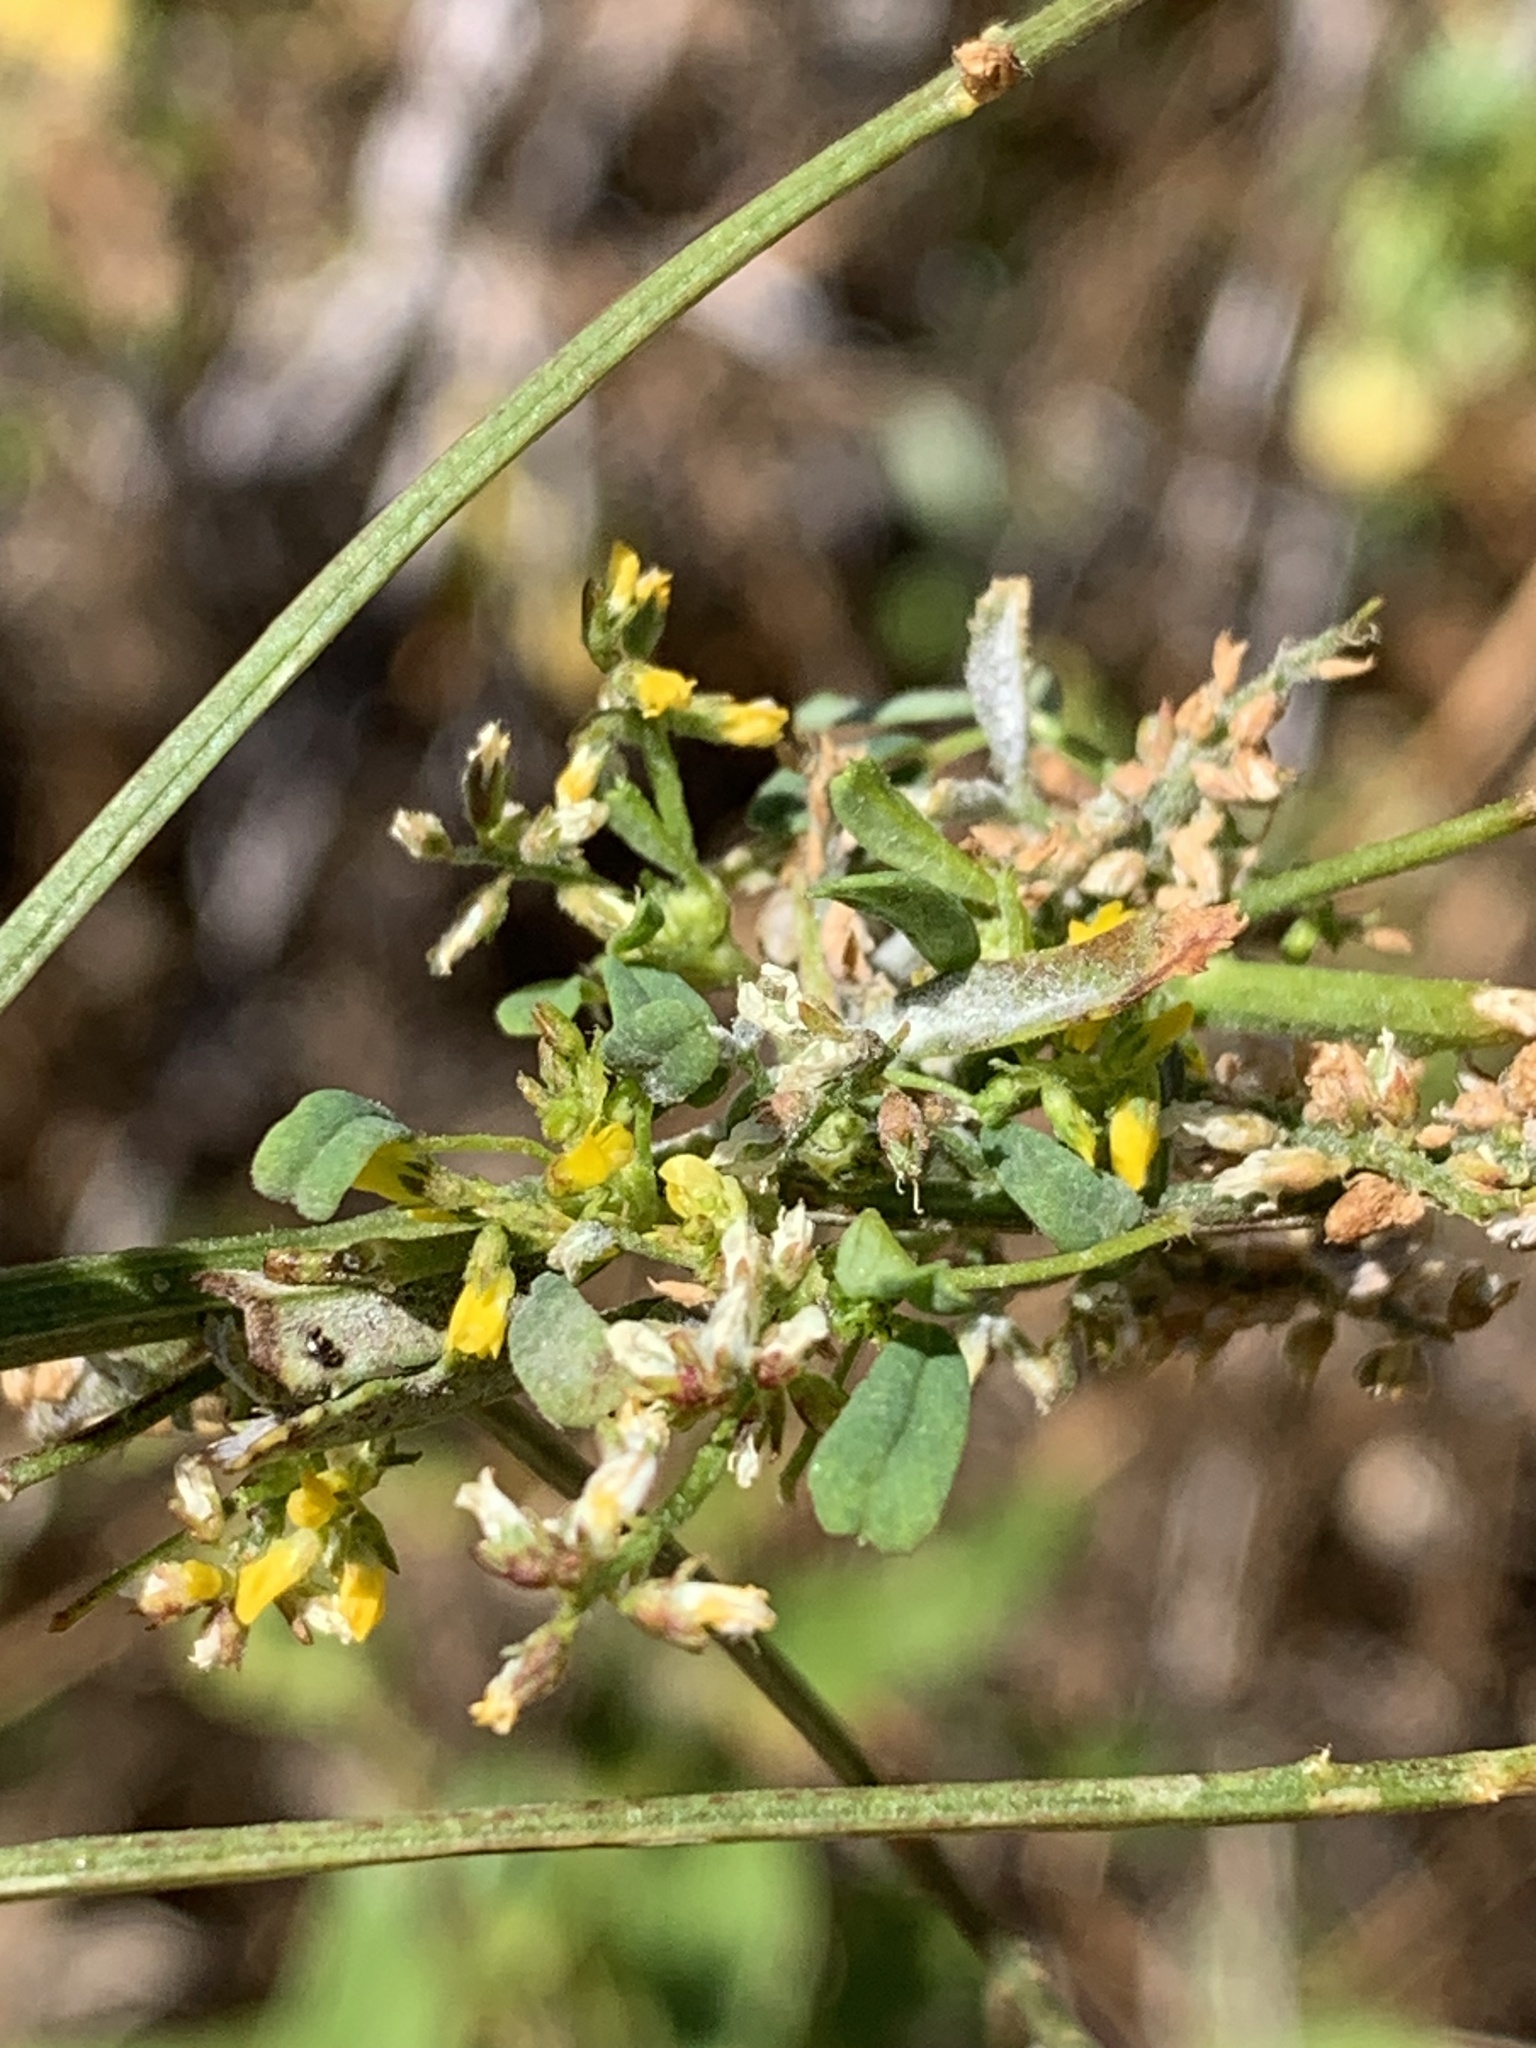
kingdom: Plantae
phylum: Tracheophyta
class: Magnoliopsida
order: Fabales
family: Fabaceae
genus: Melilotus
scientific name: Melilotus indicus
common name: Small melilot
